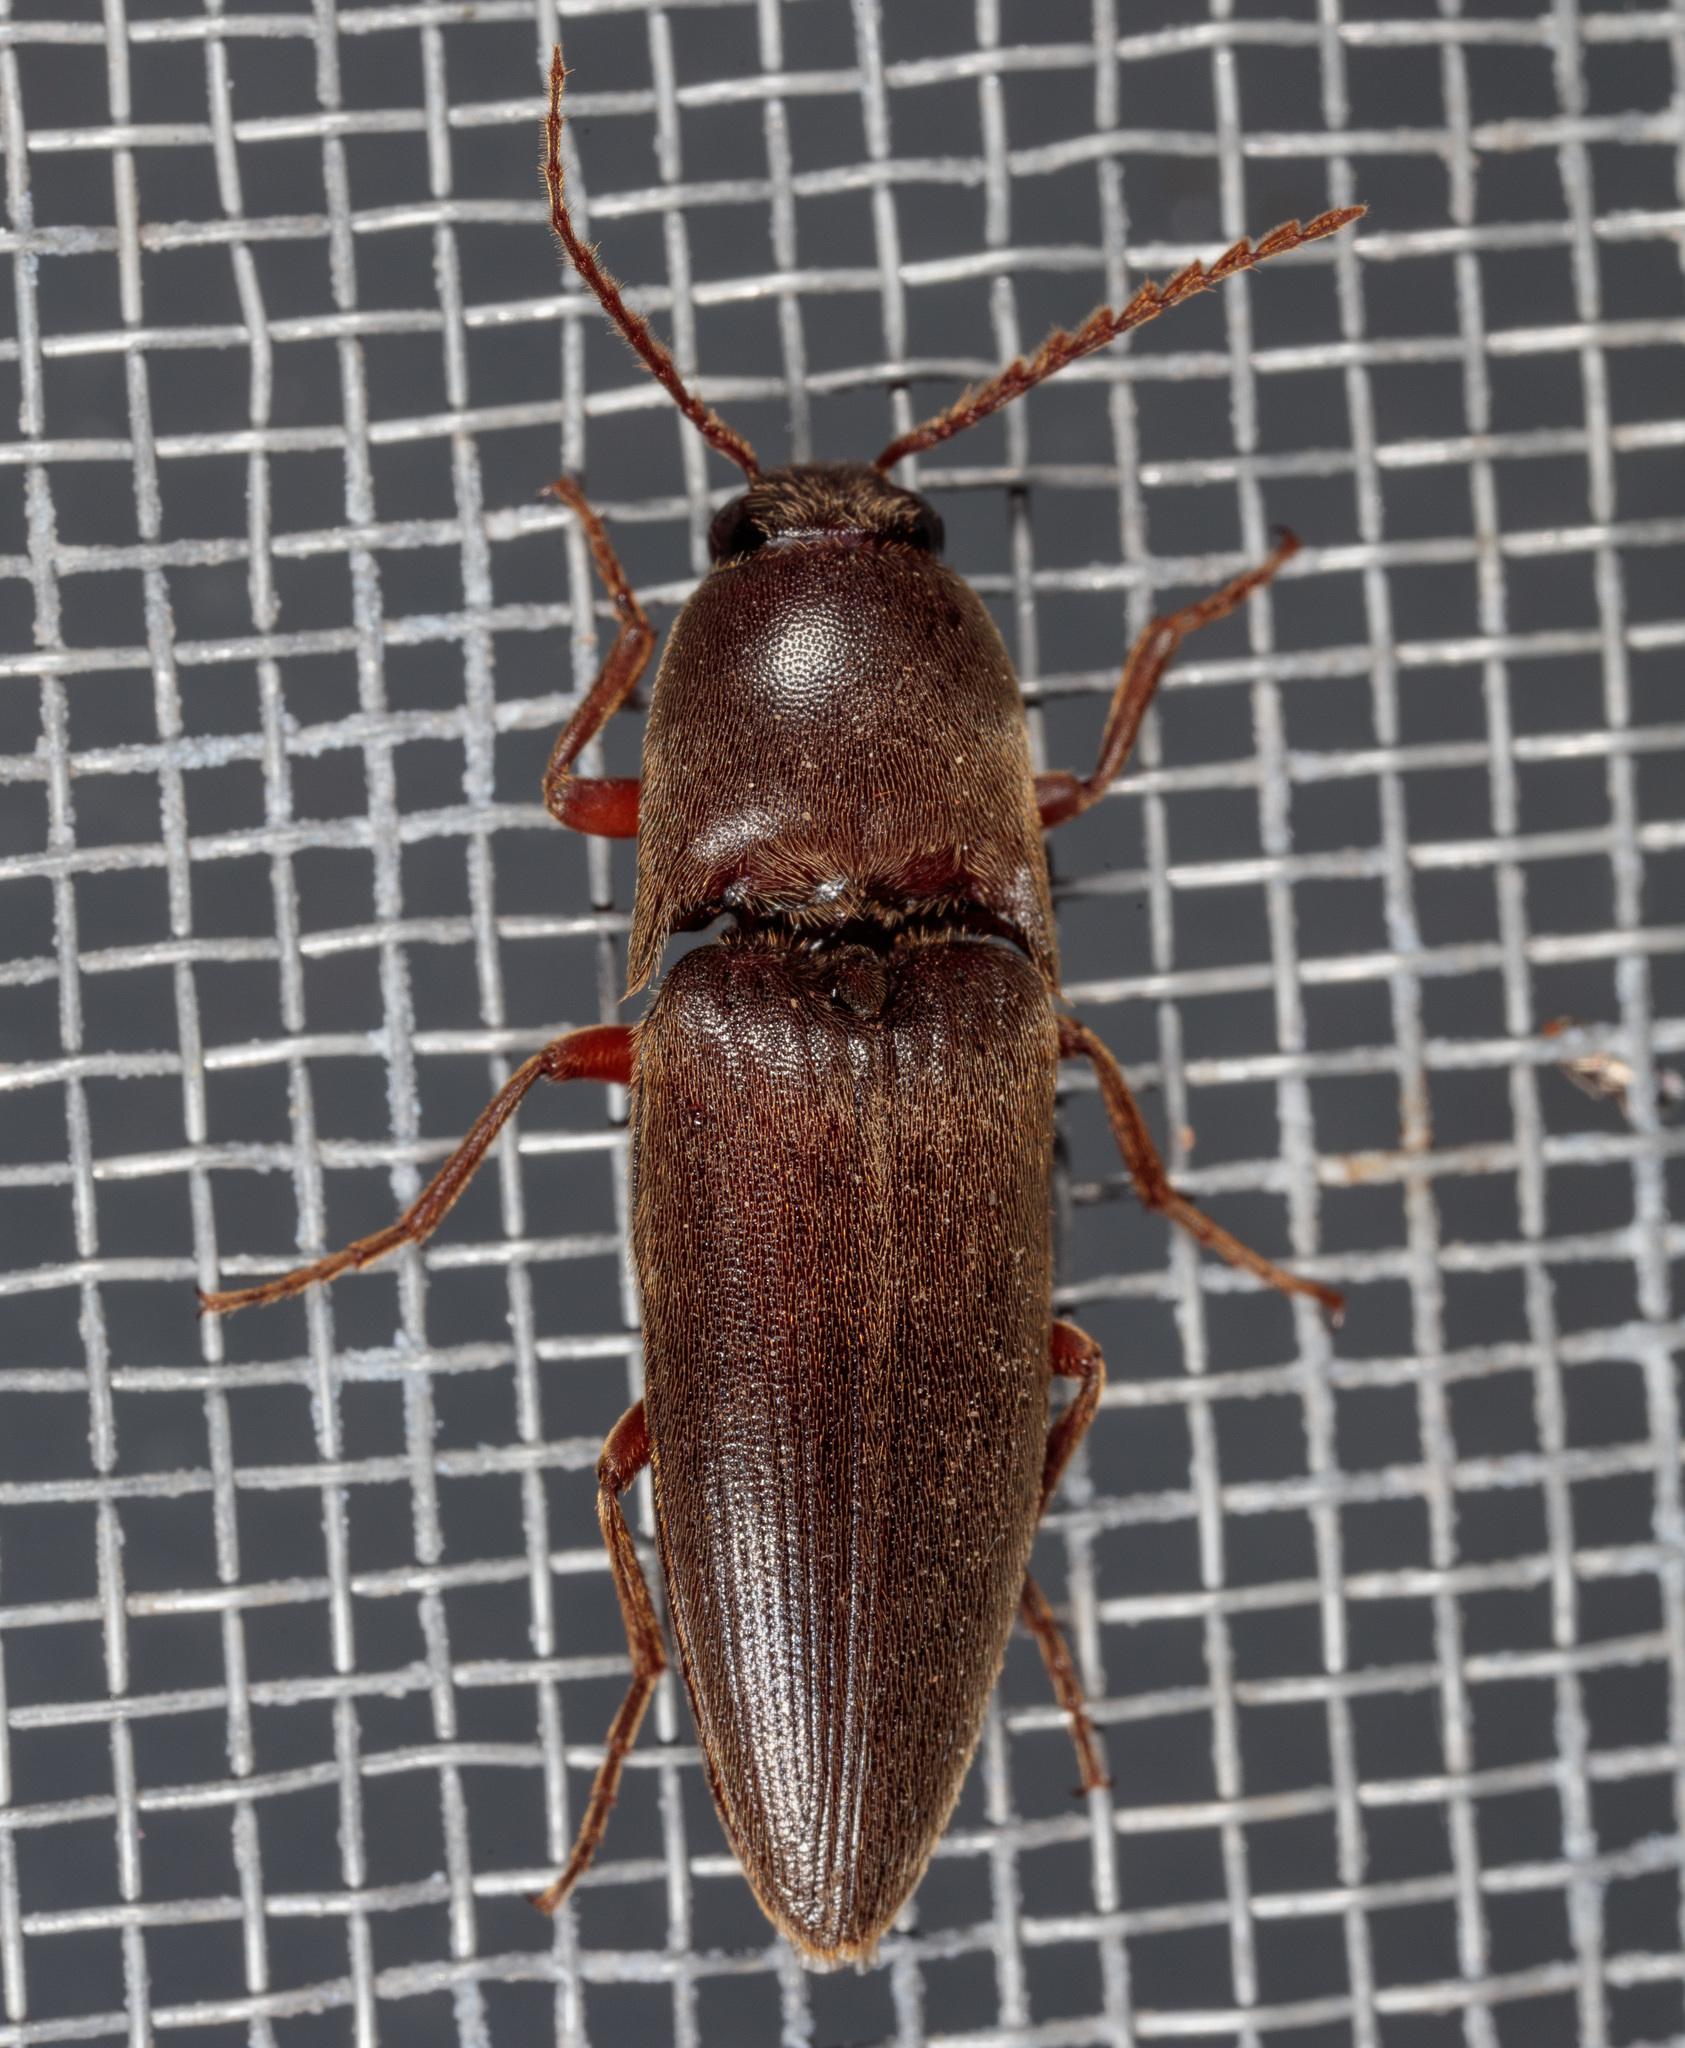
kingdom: Animalia
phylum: Arthropoda
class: Insecta
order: Coleoptera
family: Elateridae
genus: Diplostethus
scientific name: Diplostethus
